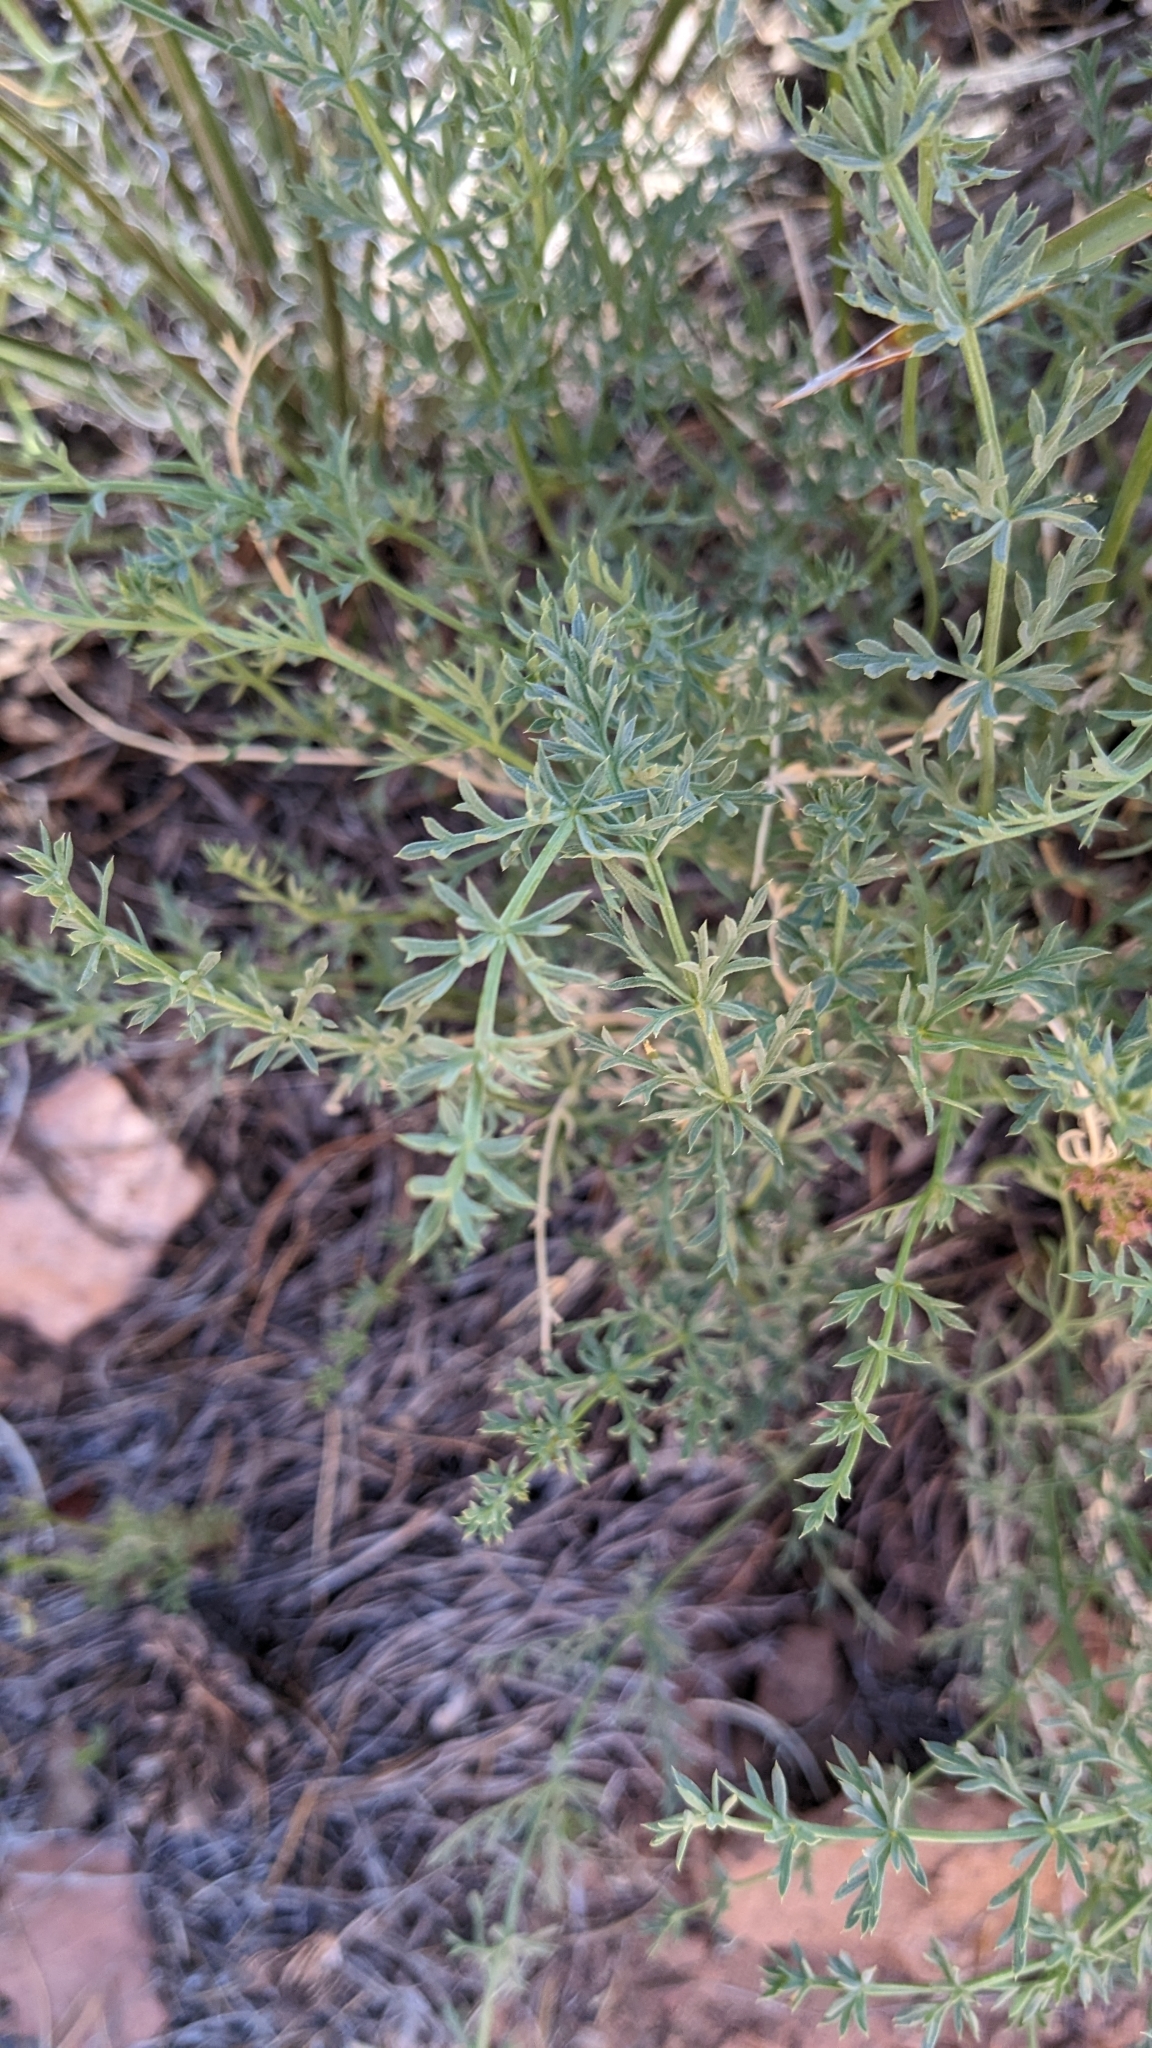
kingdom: Plantae
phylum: Tracheophyta
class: Magnoliopsida
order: Apiales
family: Apiaceae
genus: Lomatium
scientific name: Lomatium parryi
